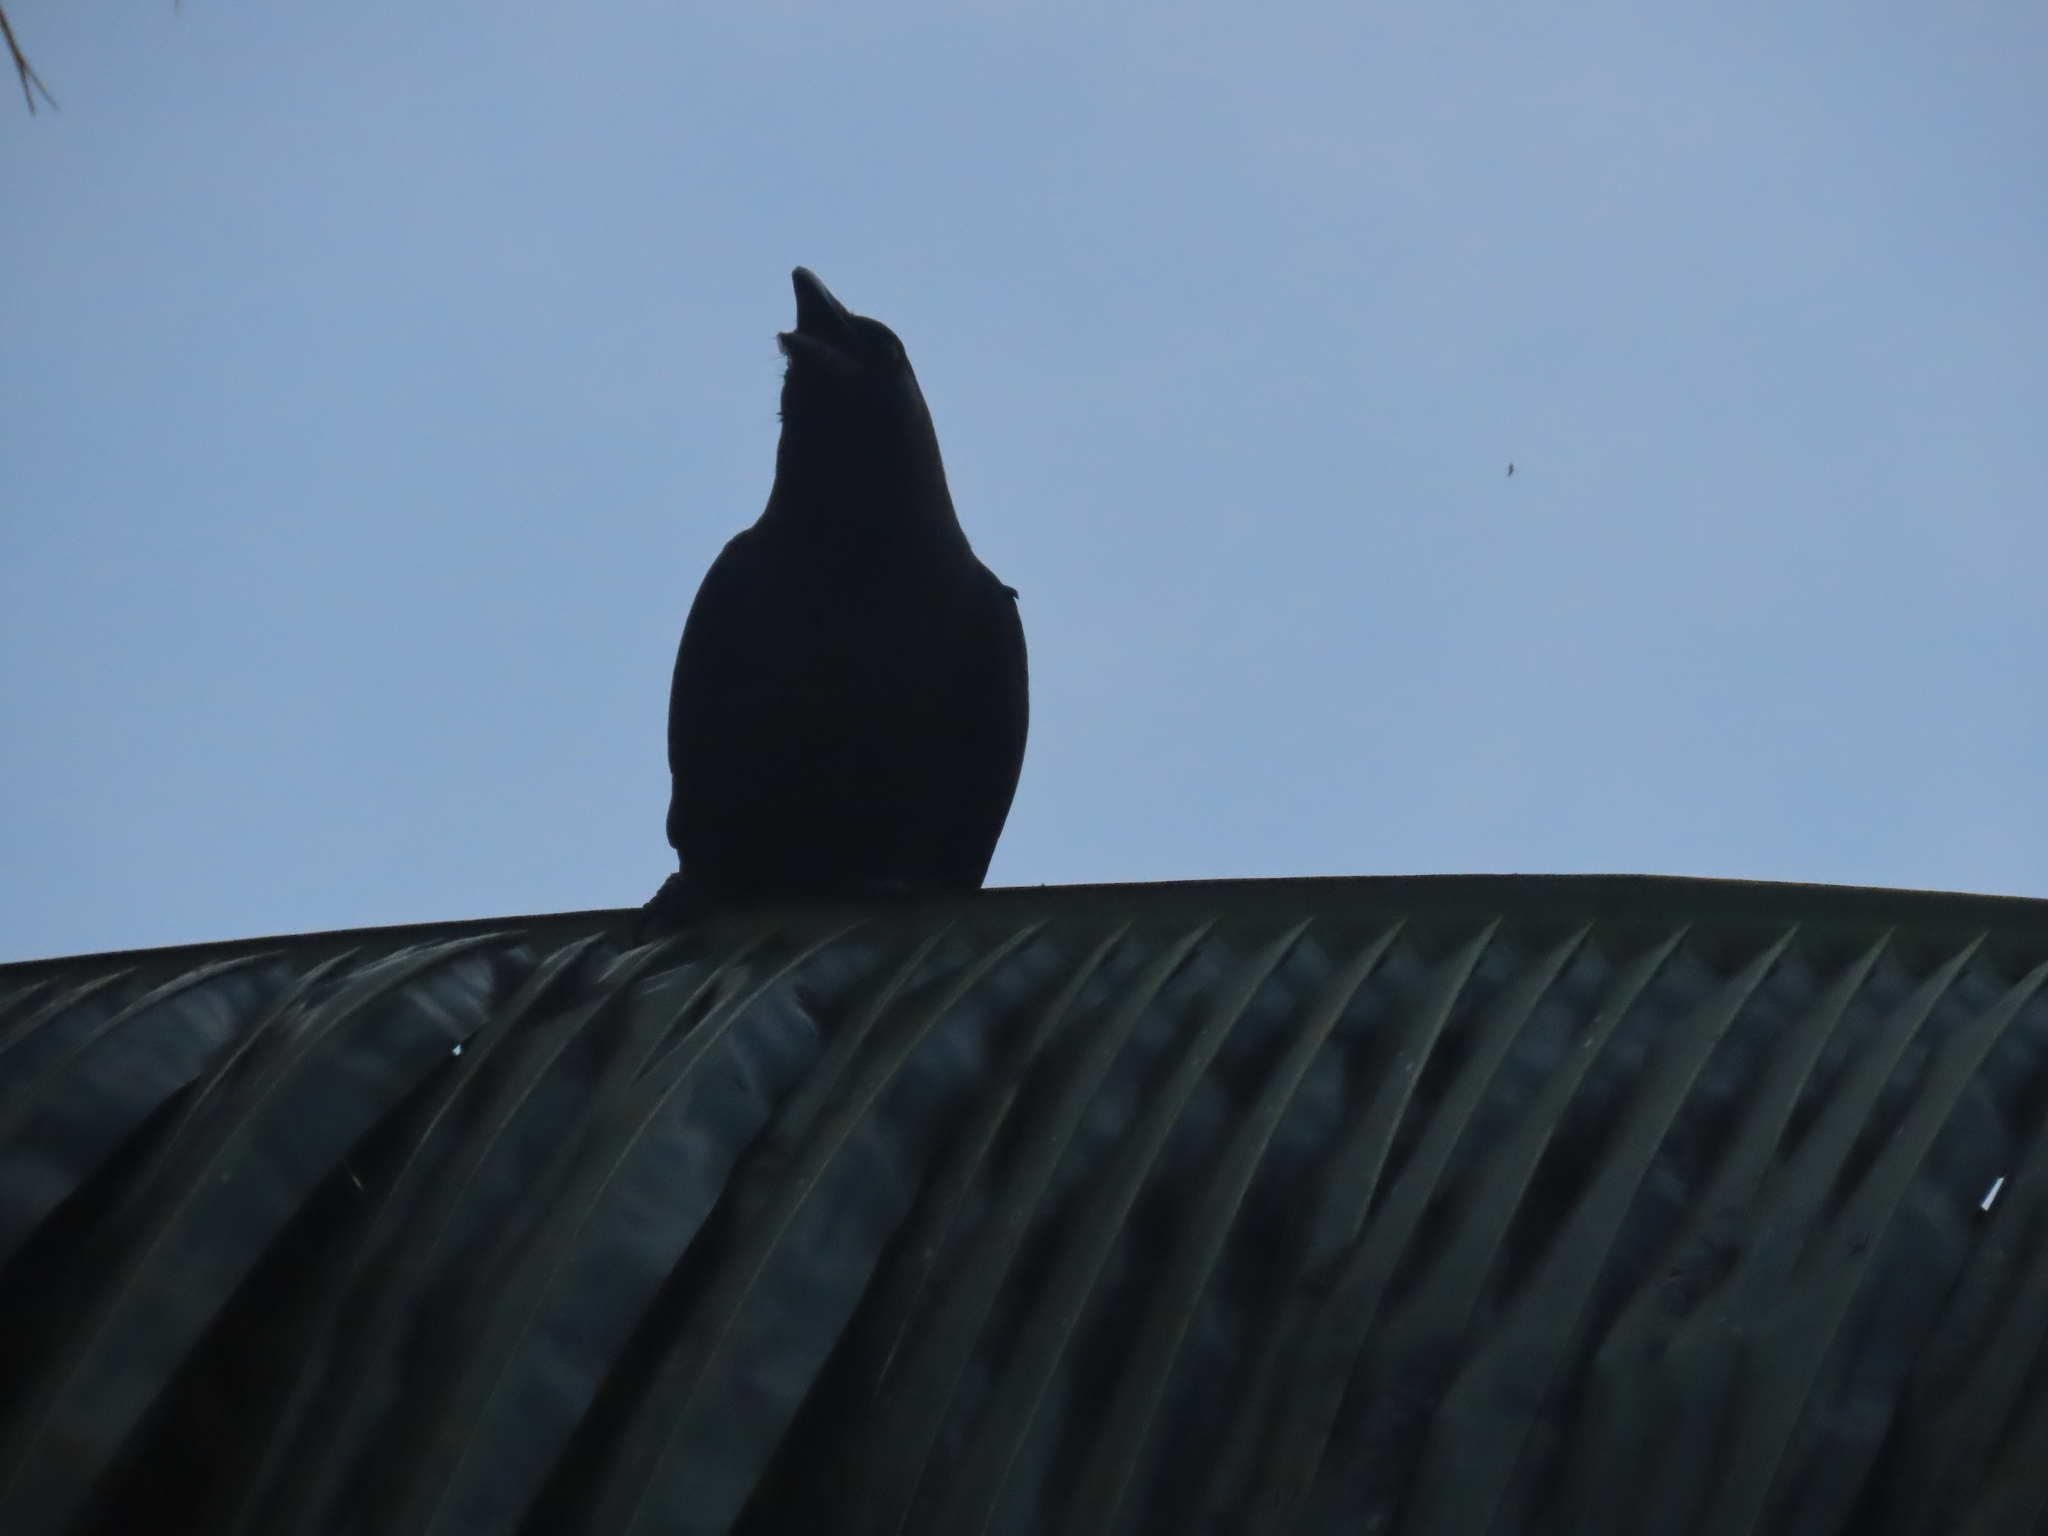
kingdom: Animalia
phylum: Chordata
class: Aves
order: Passeriformes
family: Corvidae
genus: Corvus
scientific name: Corvus splendens
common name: House crow
